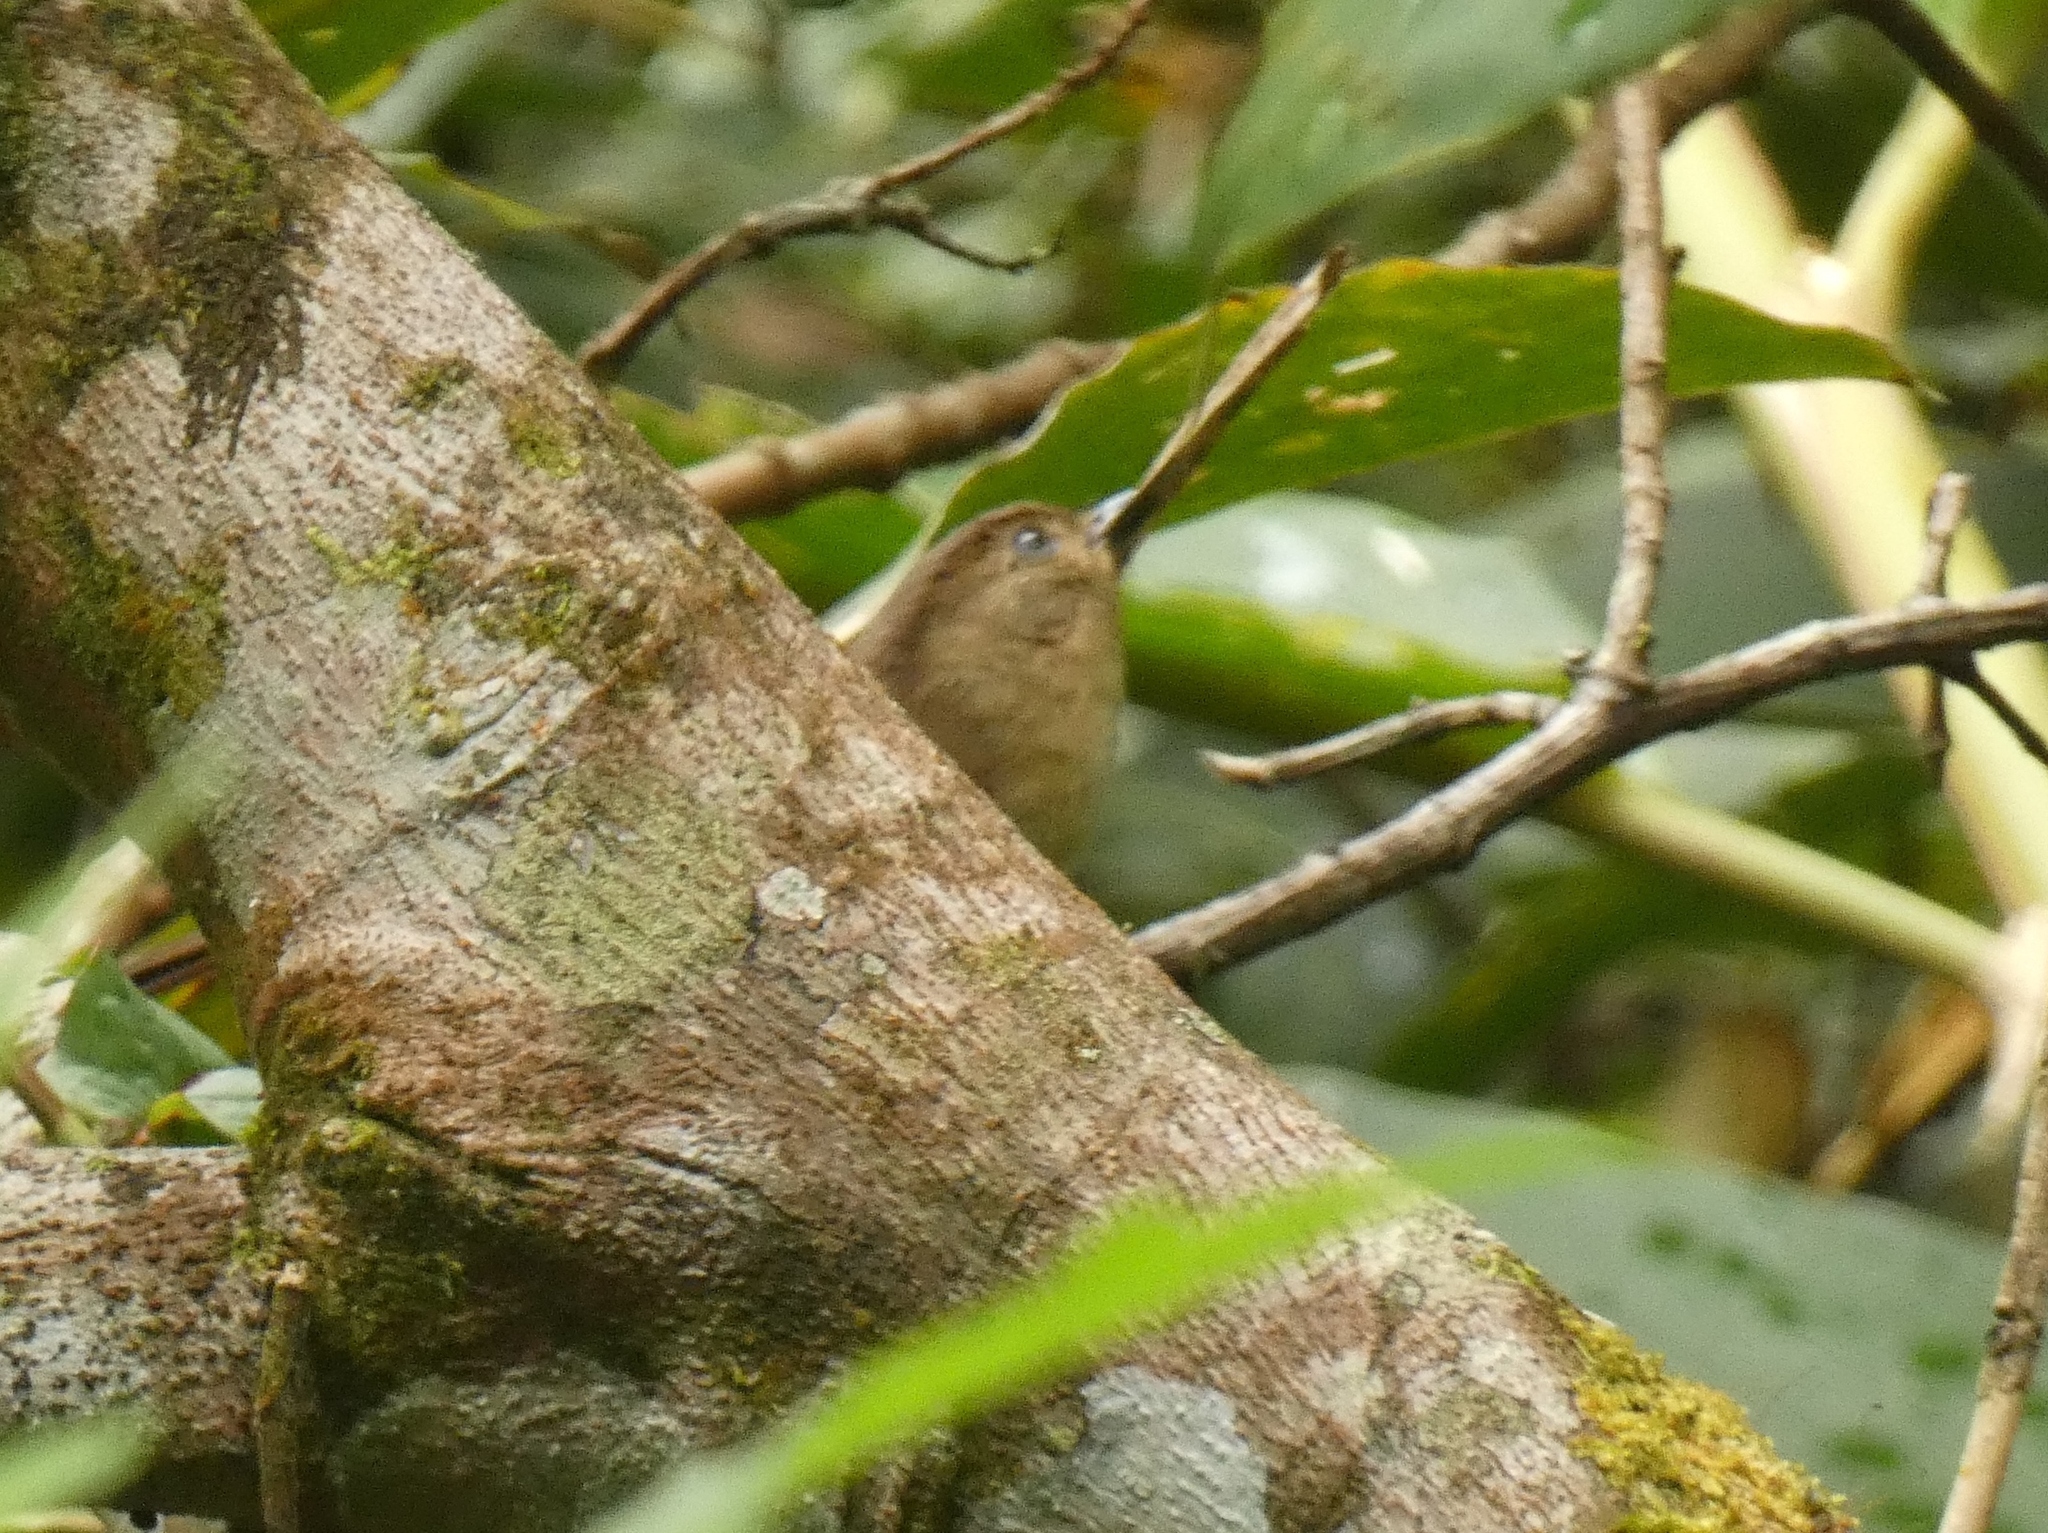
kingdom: Animalia
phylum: Chordata
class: Aves
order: Passeriformes
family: Pellorneidae
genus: Alcippe
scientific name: Alcippe pyrrhoptera
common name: Javan fulvetta
